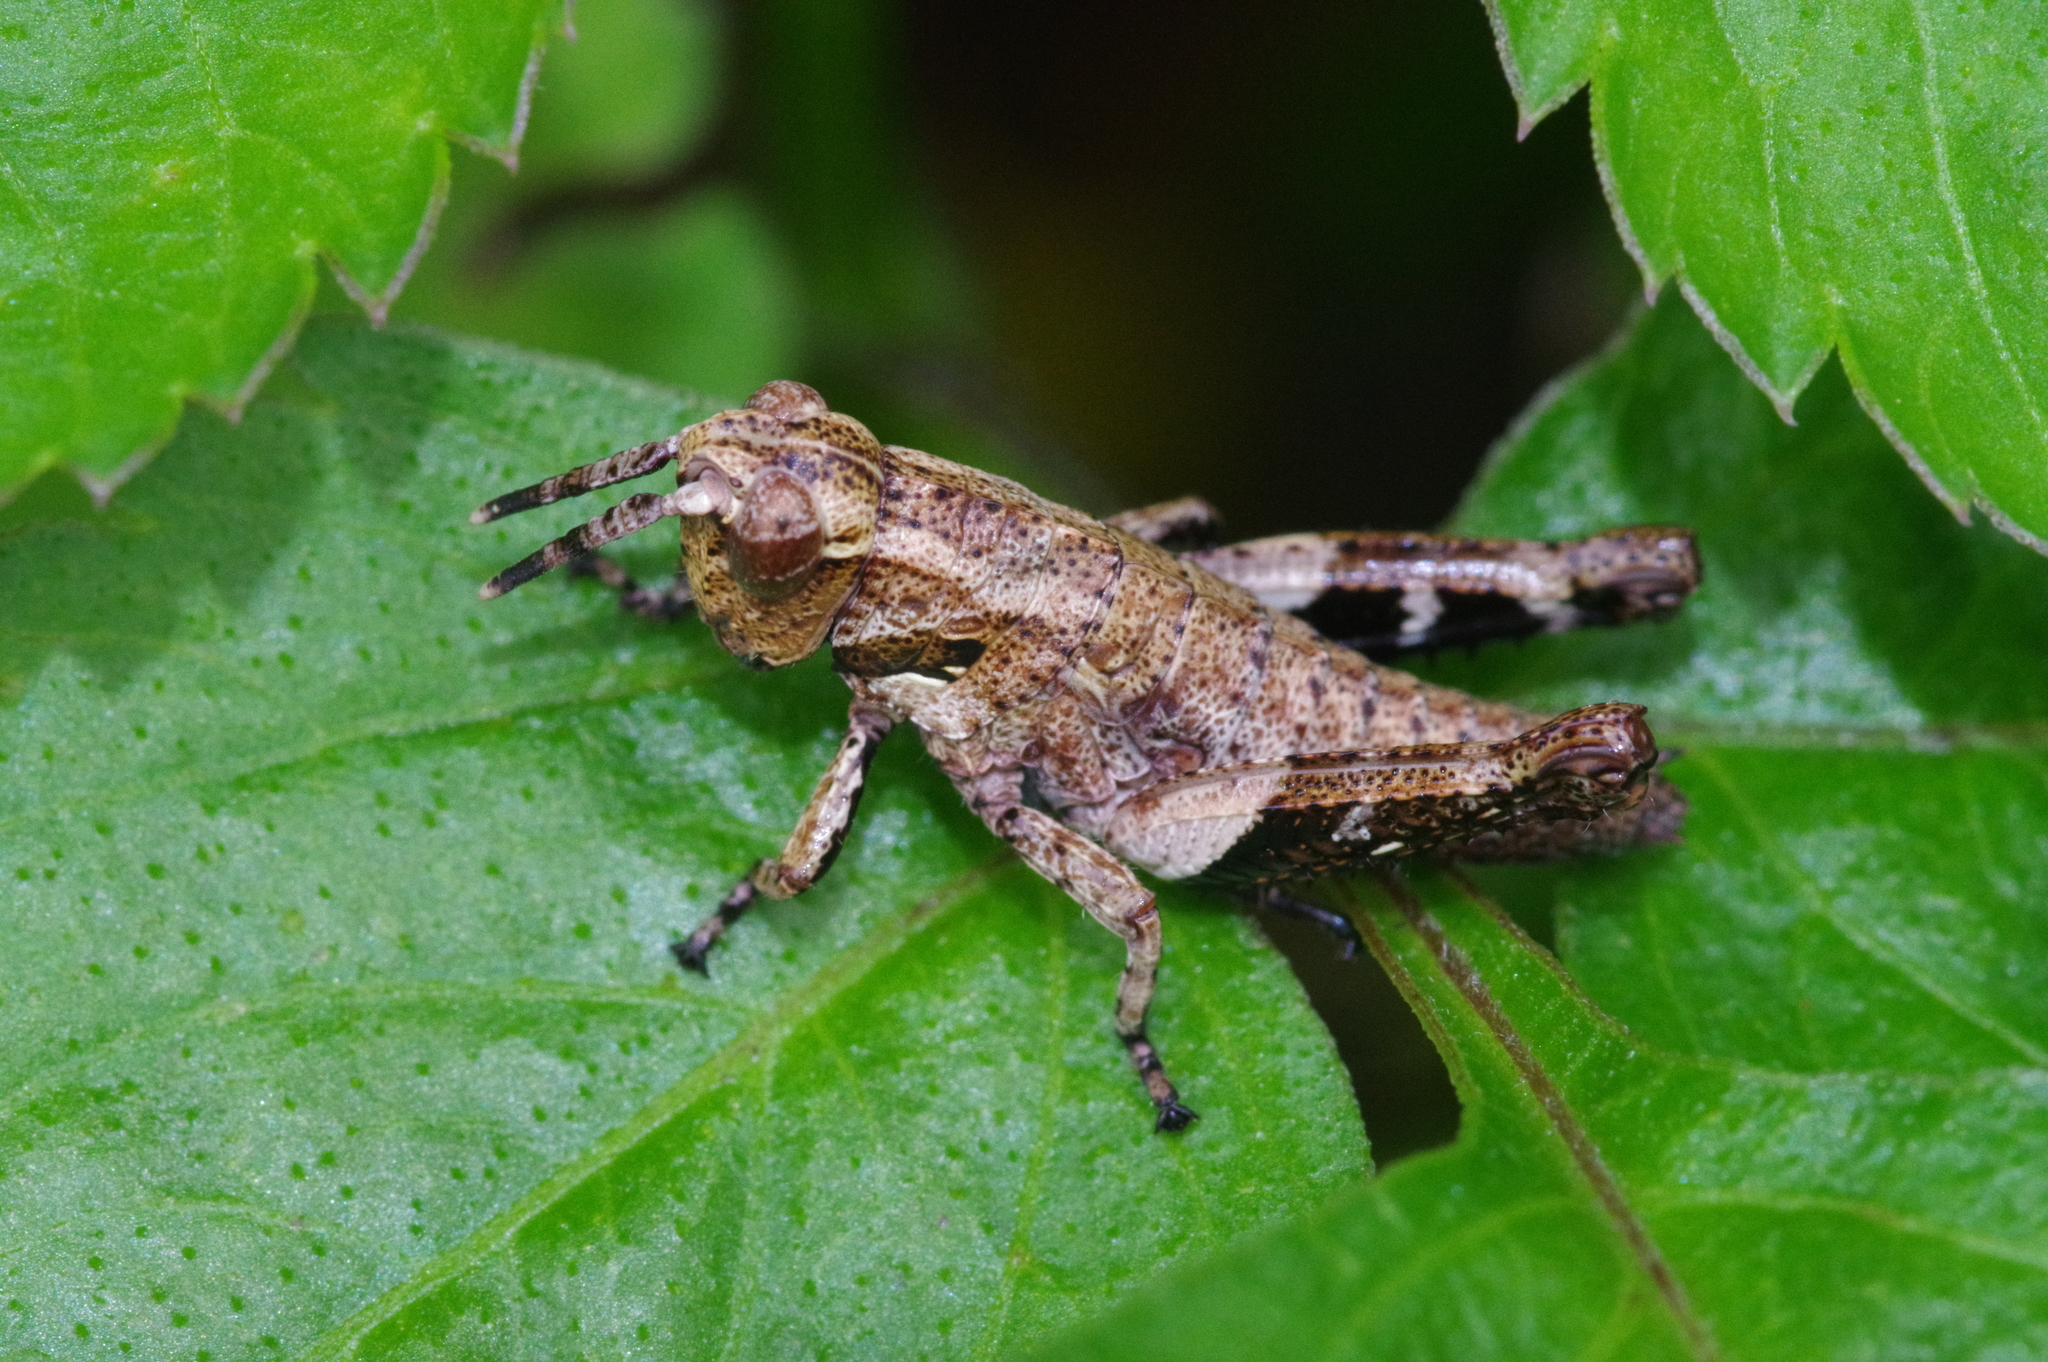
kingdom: Animalia
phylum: Arthropoda
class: Insecta
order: Orthoptera
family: Acrididae
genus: Traulia
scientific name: Traulia ornata
